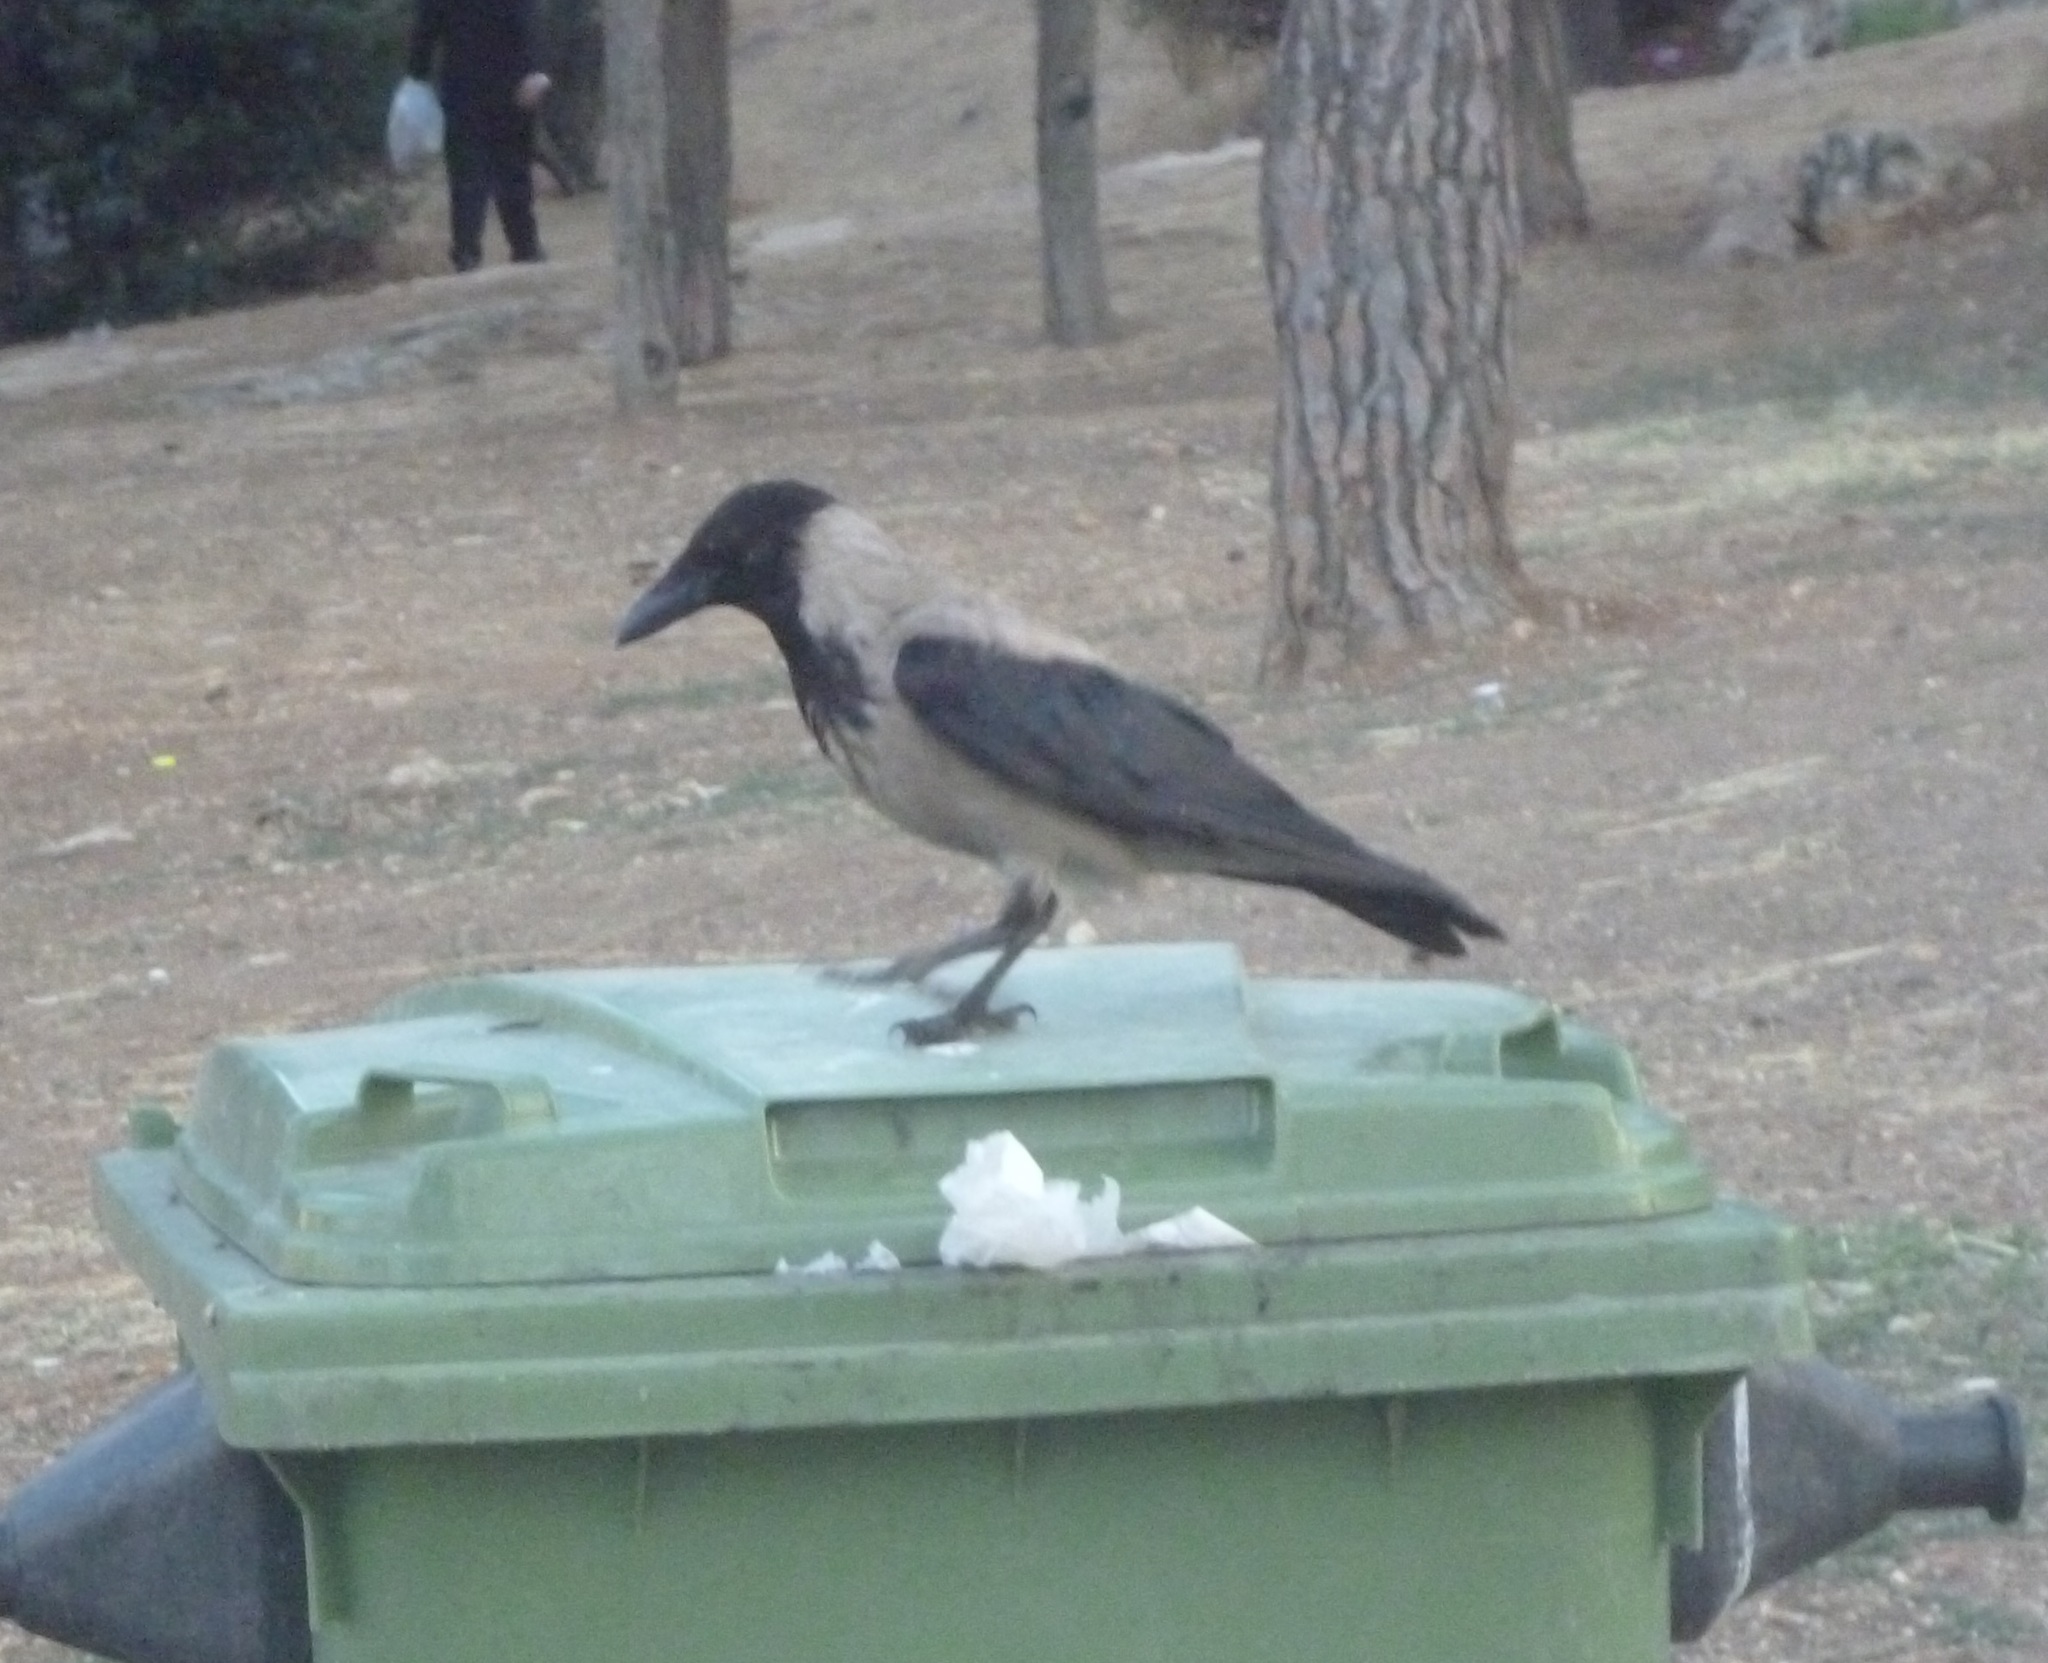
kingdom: Animalia
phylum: Chordata
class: Aves
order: Passeriformes
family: Corvidae
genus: Corvus
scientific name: Corvus cornix
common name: Hooded crow
